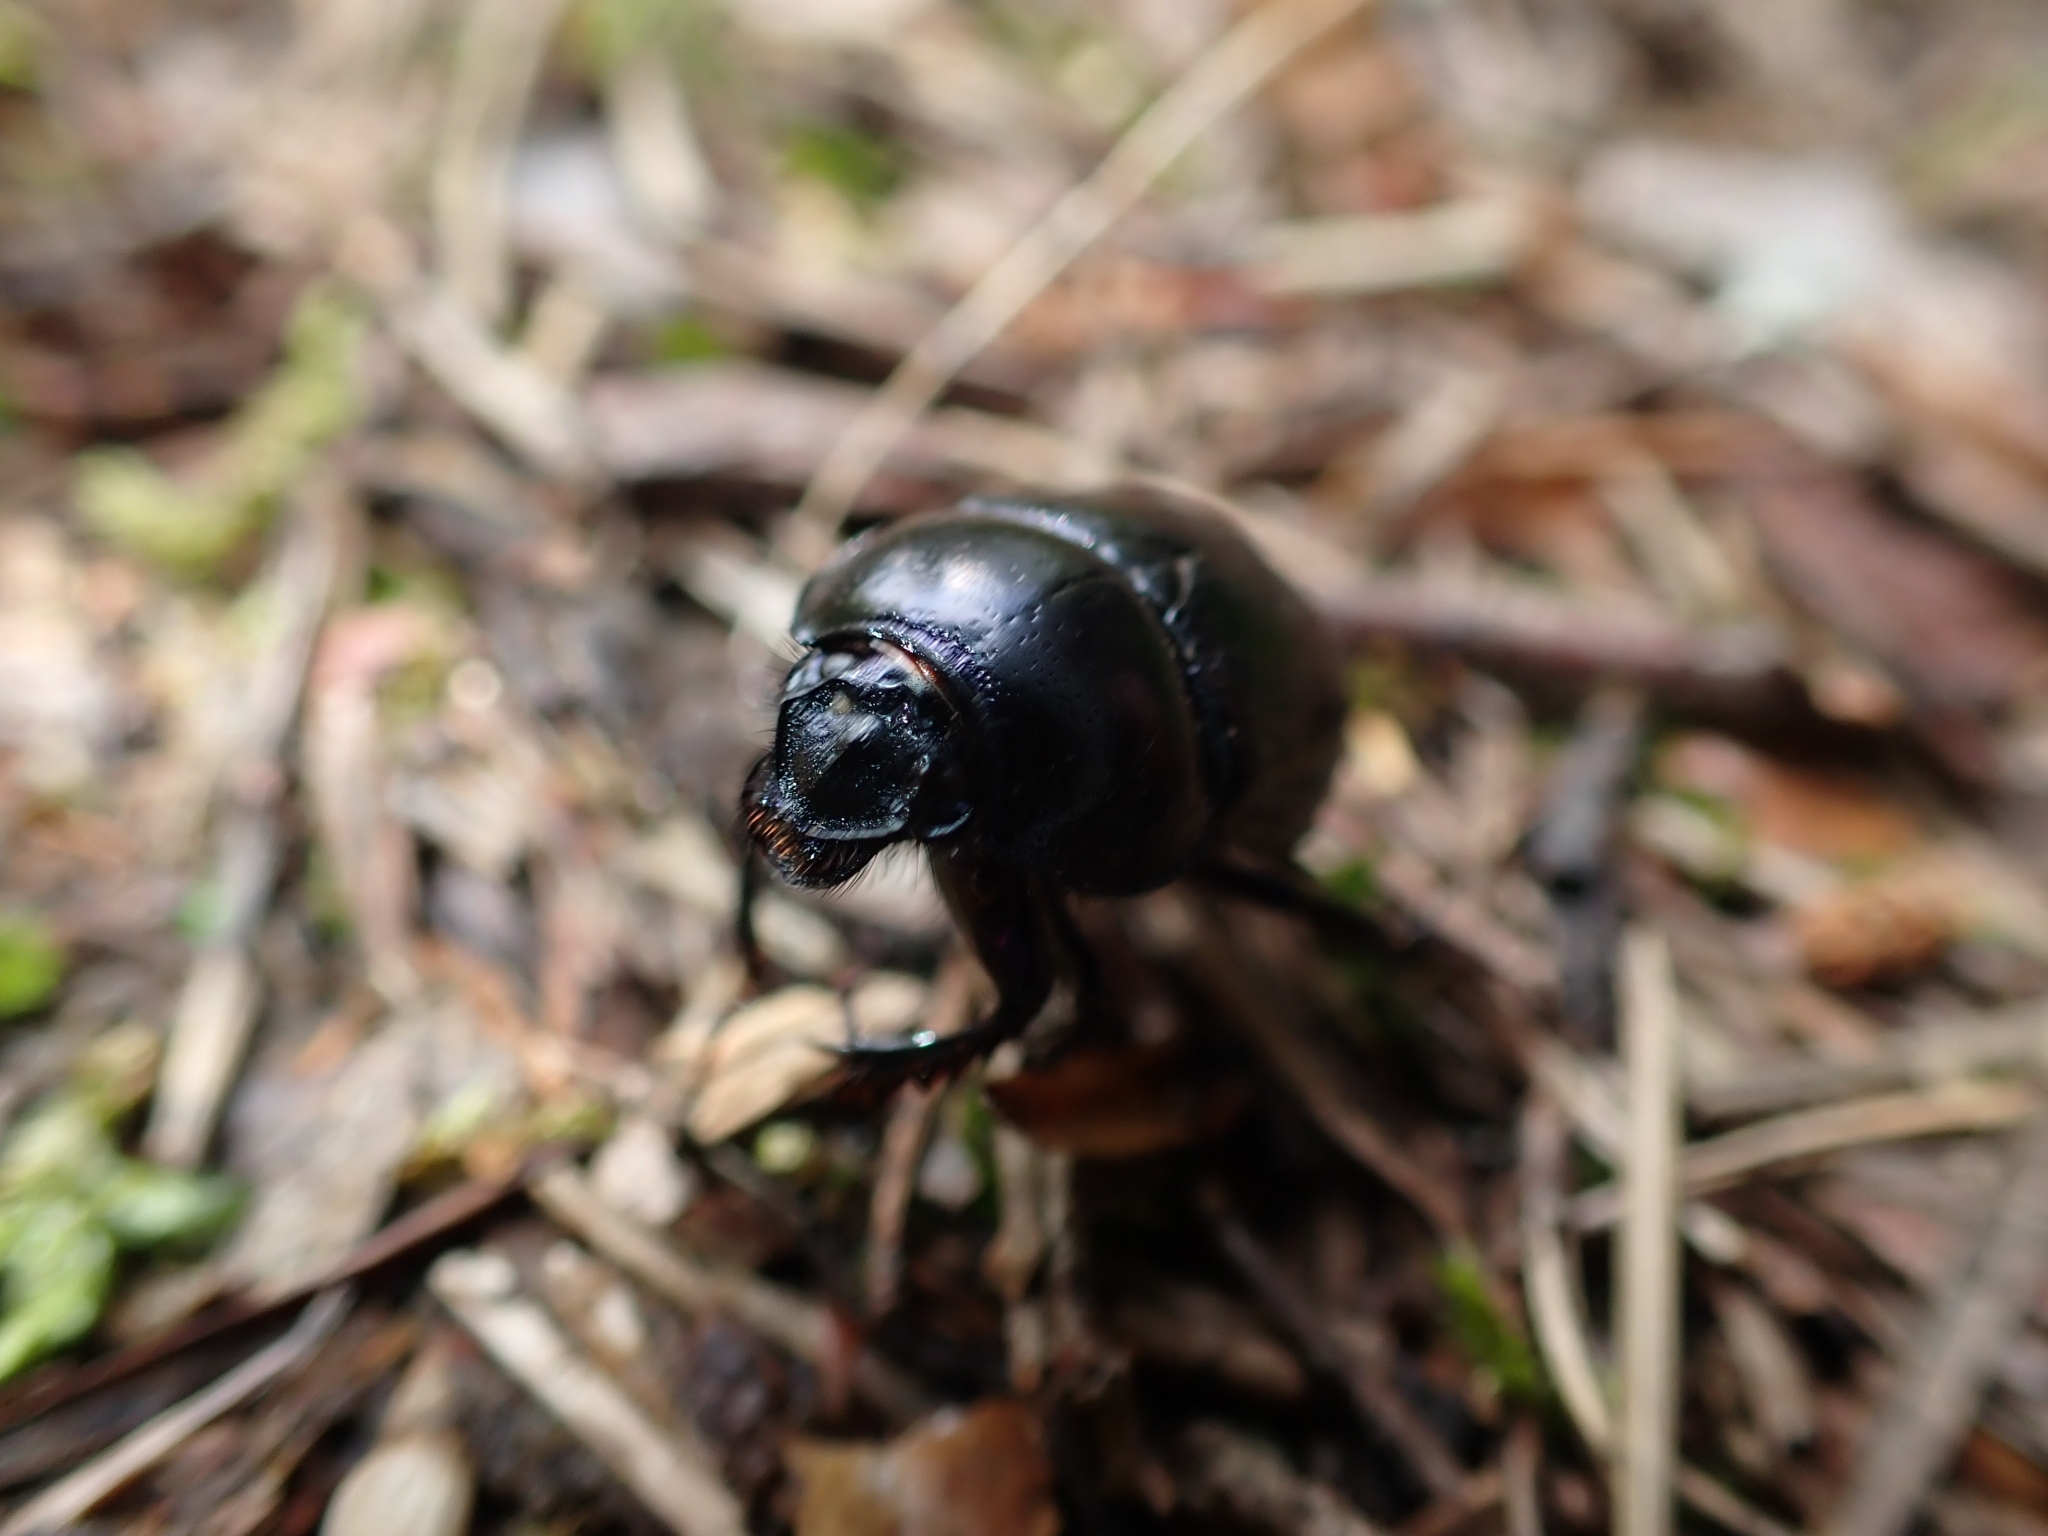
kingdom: Animalia
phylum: Arthropoda
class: Insecta
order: Coleoptera
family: Geotrupidae
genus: Anoplotrupes
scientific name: Anoplotrupes stercorosus
